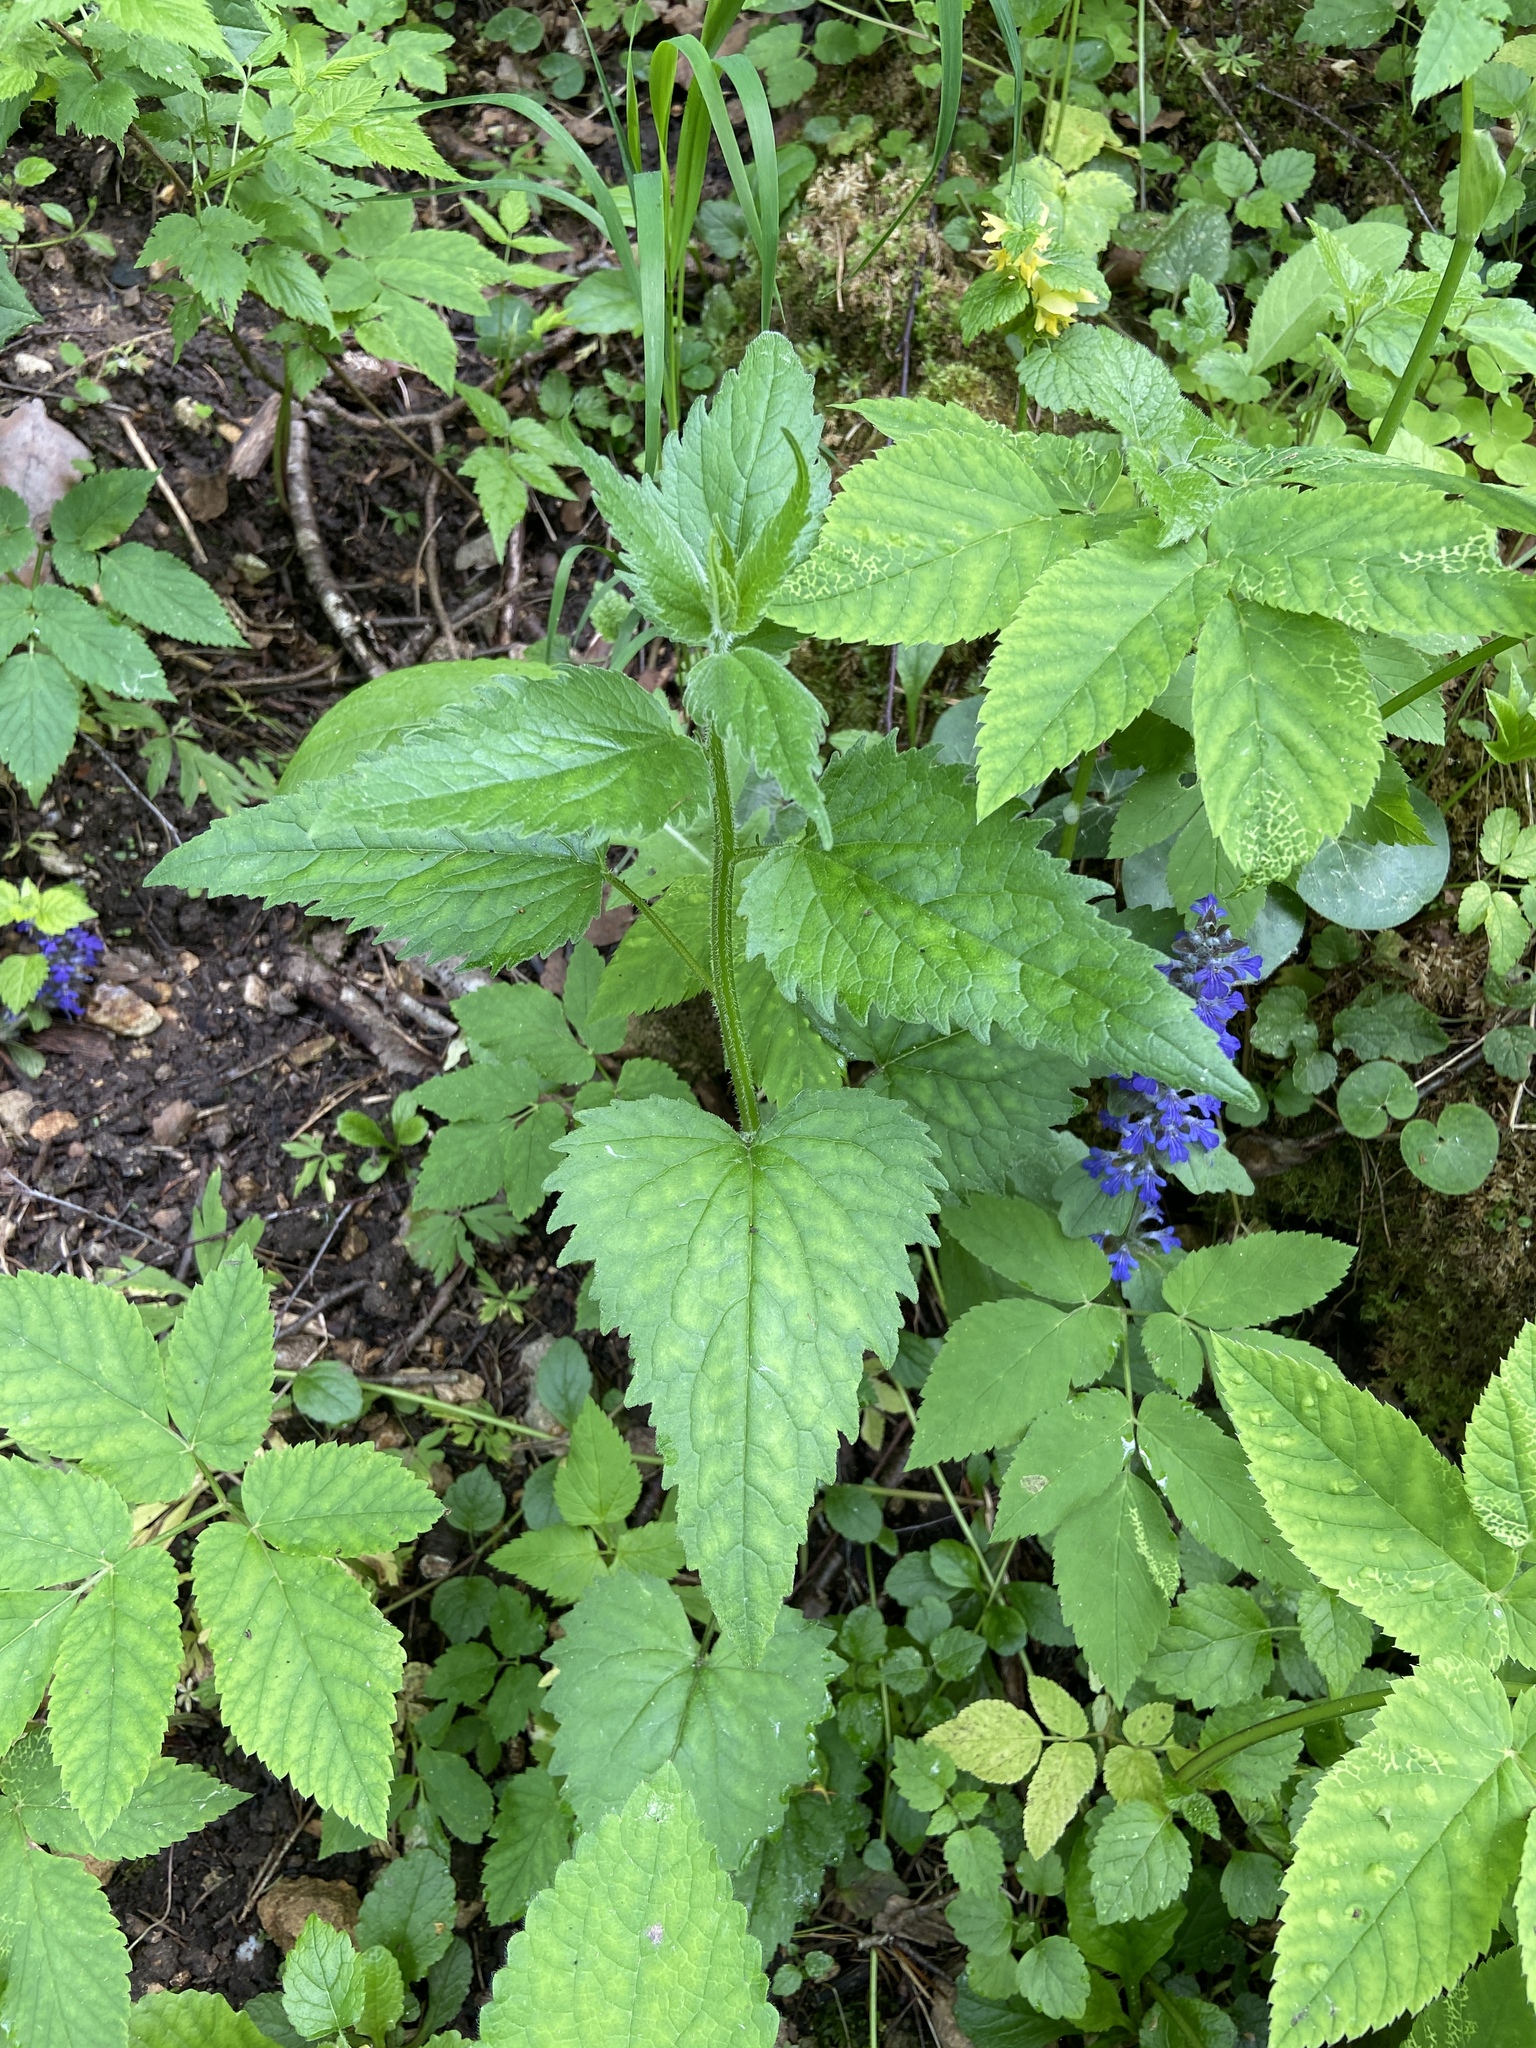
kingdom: Plantae
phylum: Tracheophyta
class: Magnoliopsida
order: Asterales
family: Campanulaceae
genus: Campanula
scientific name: Campanula trachelium
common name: Nettle-leaved bellflower
